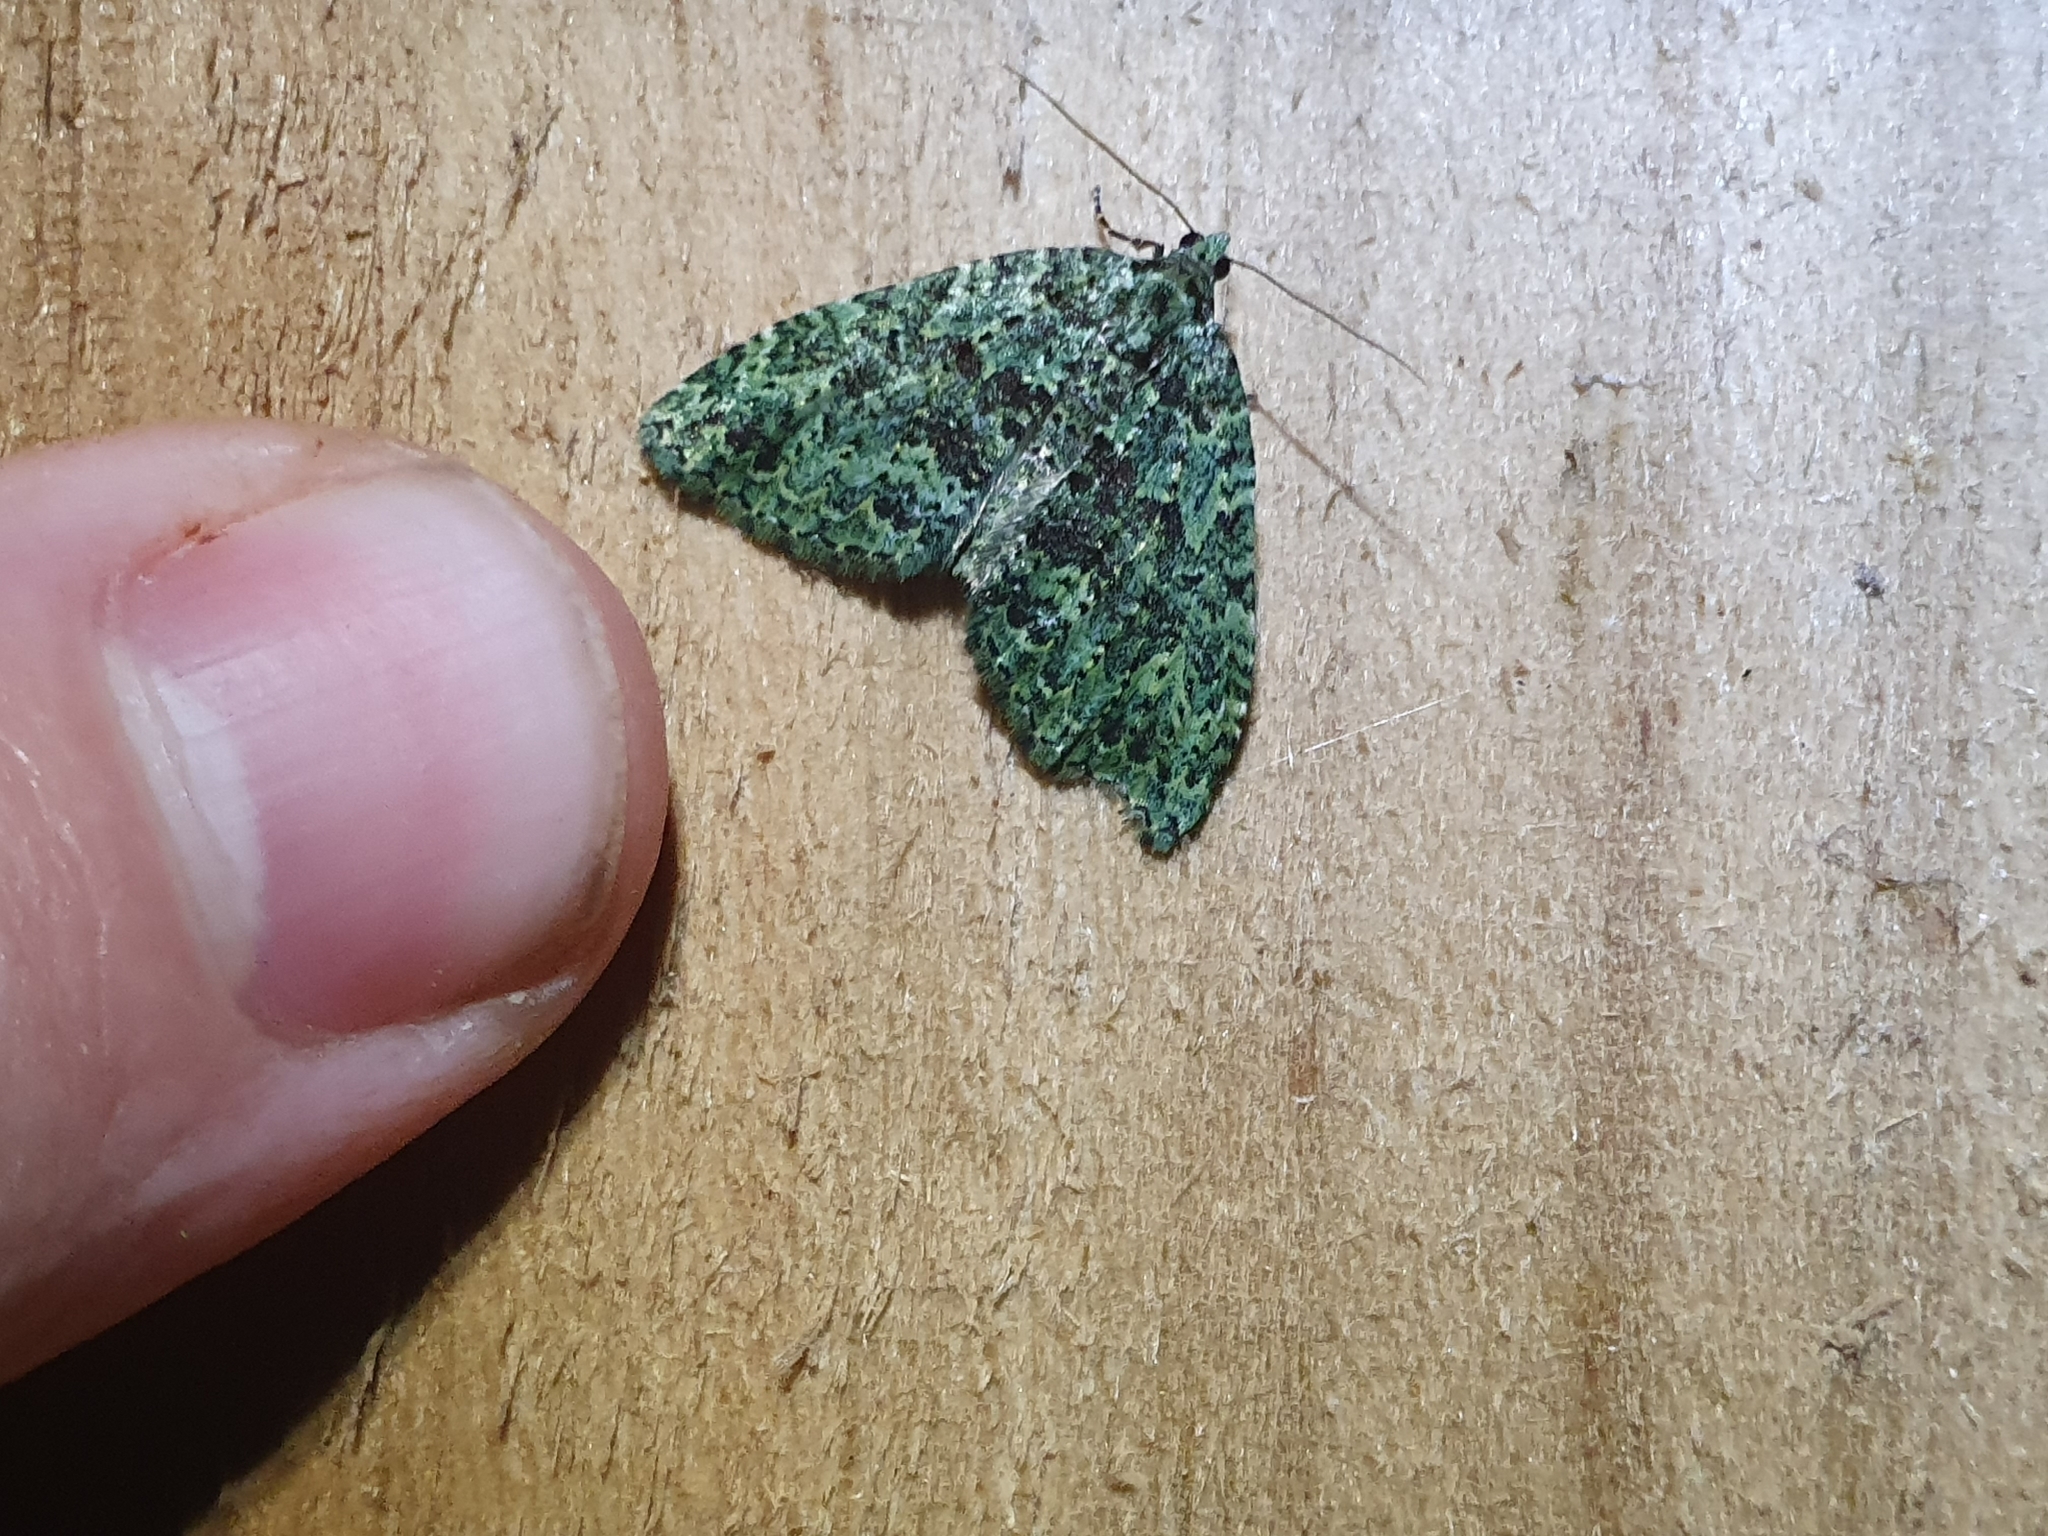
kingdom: Animalia
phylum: Arthropoda
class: Insecta
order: Lepidoptera
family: Geometridae
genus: Austrocidaria
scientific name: Austrocidaria callichlora
